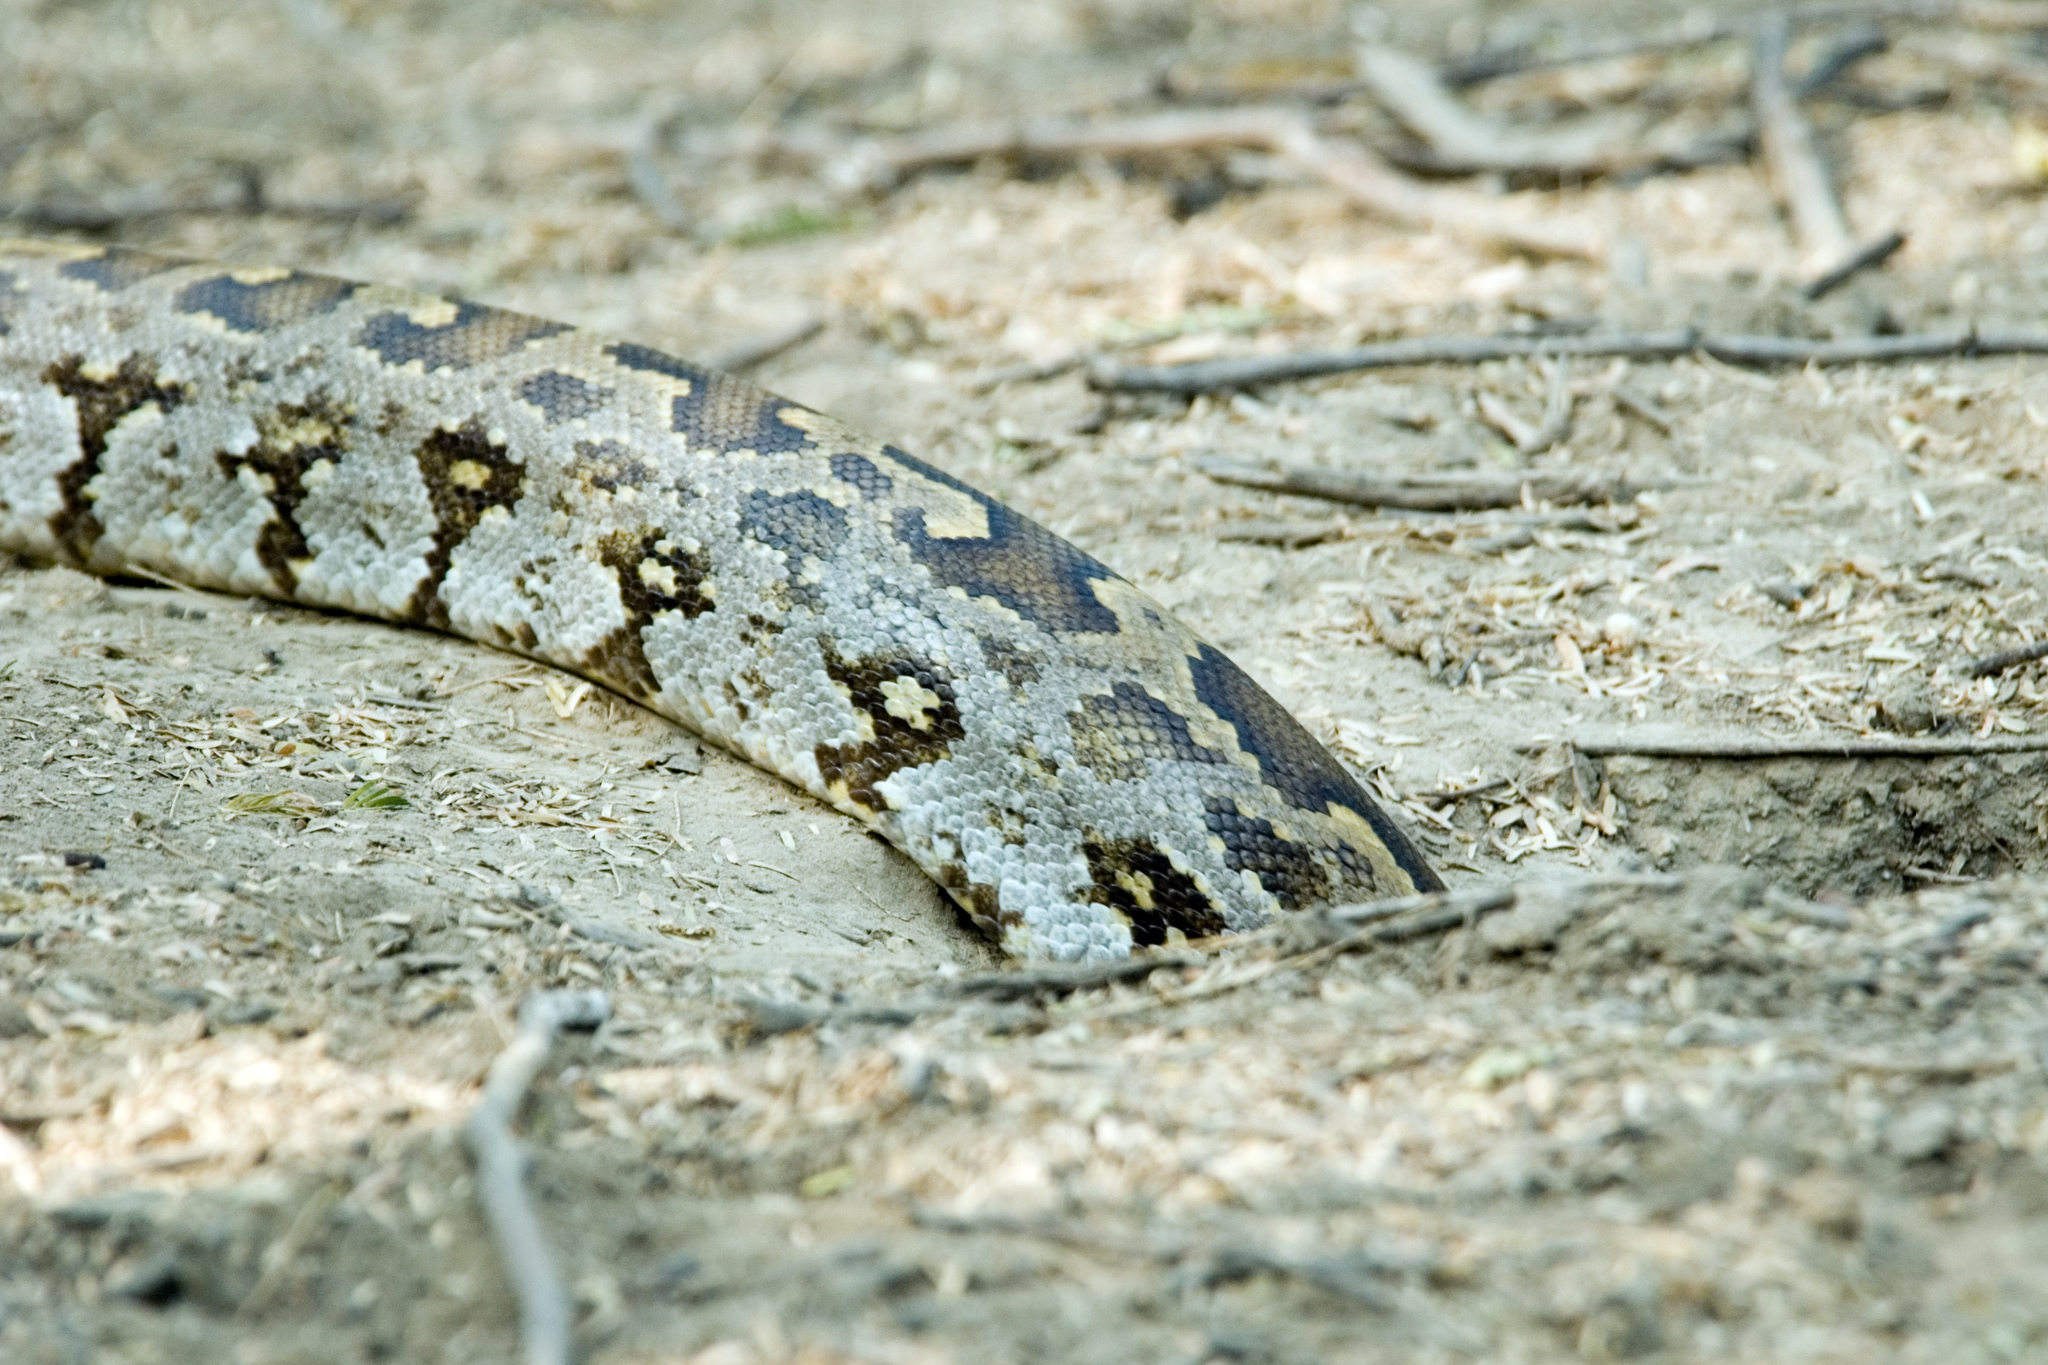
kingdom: Animalia
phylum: Chordata
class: Squamata
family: Pythonidae
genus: Python
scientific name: Python molurus
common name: Indian rock python
